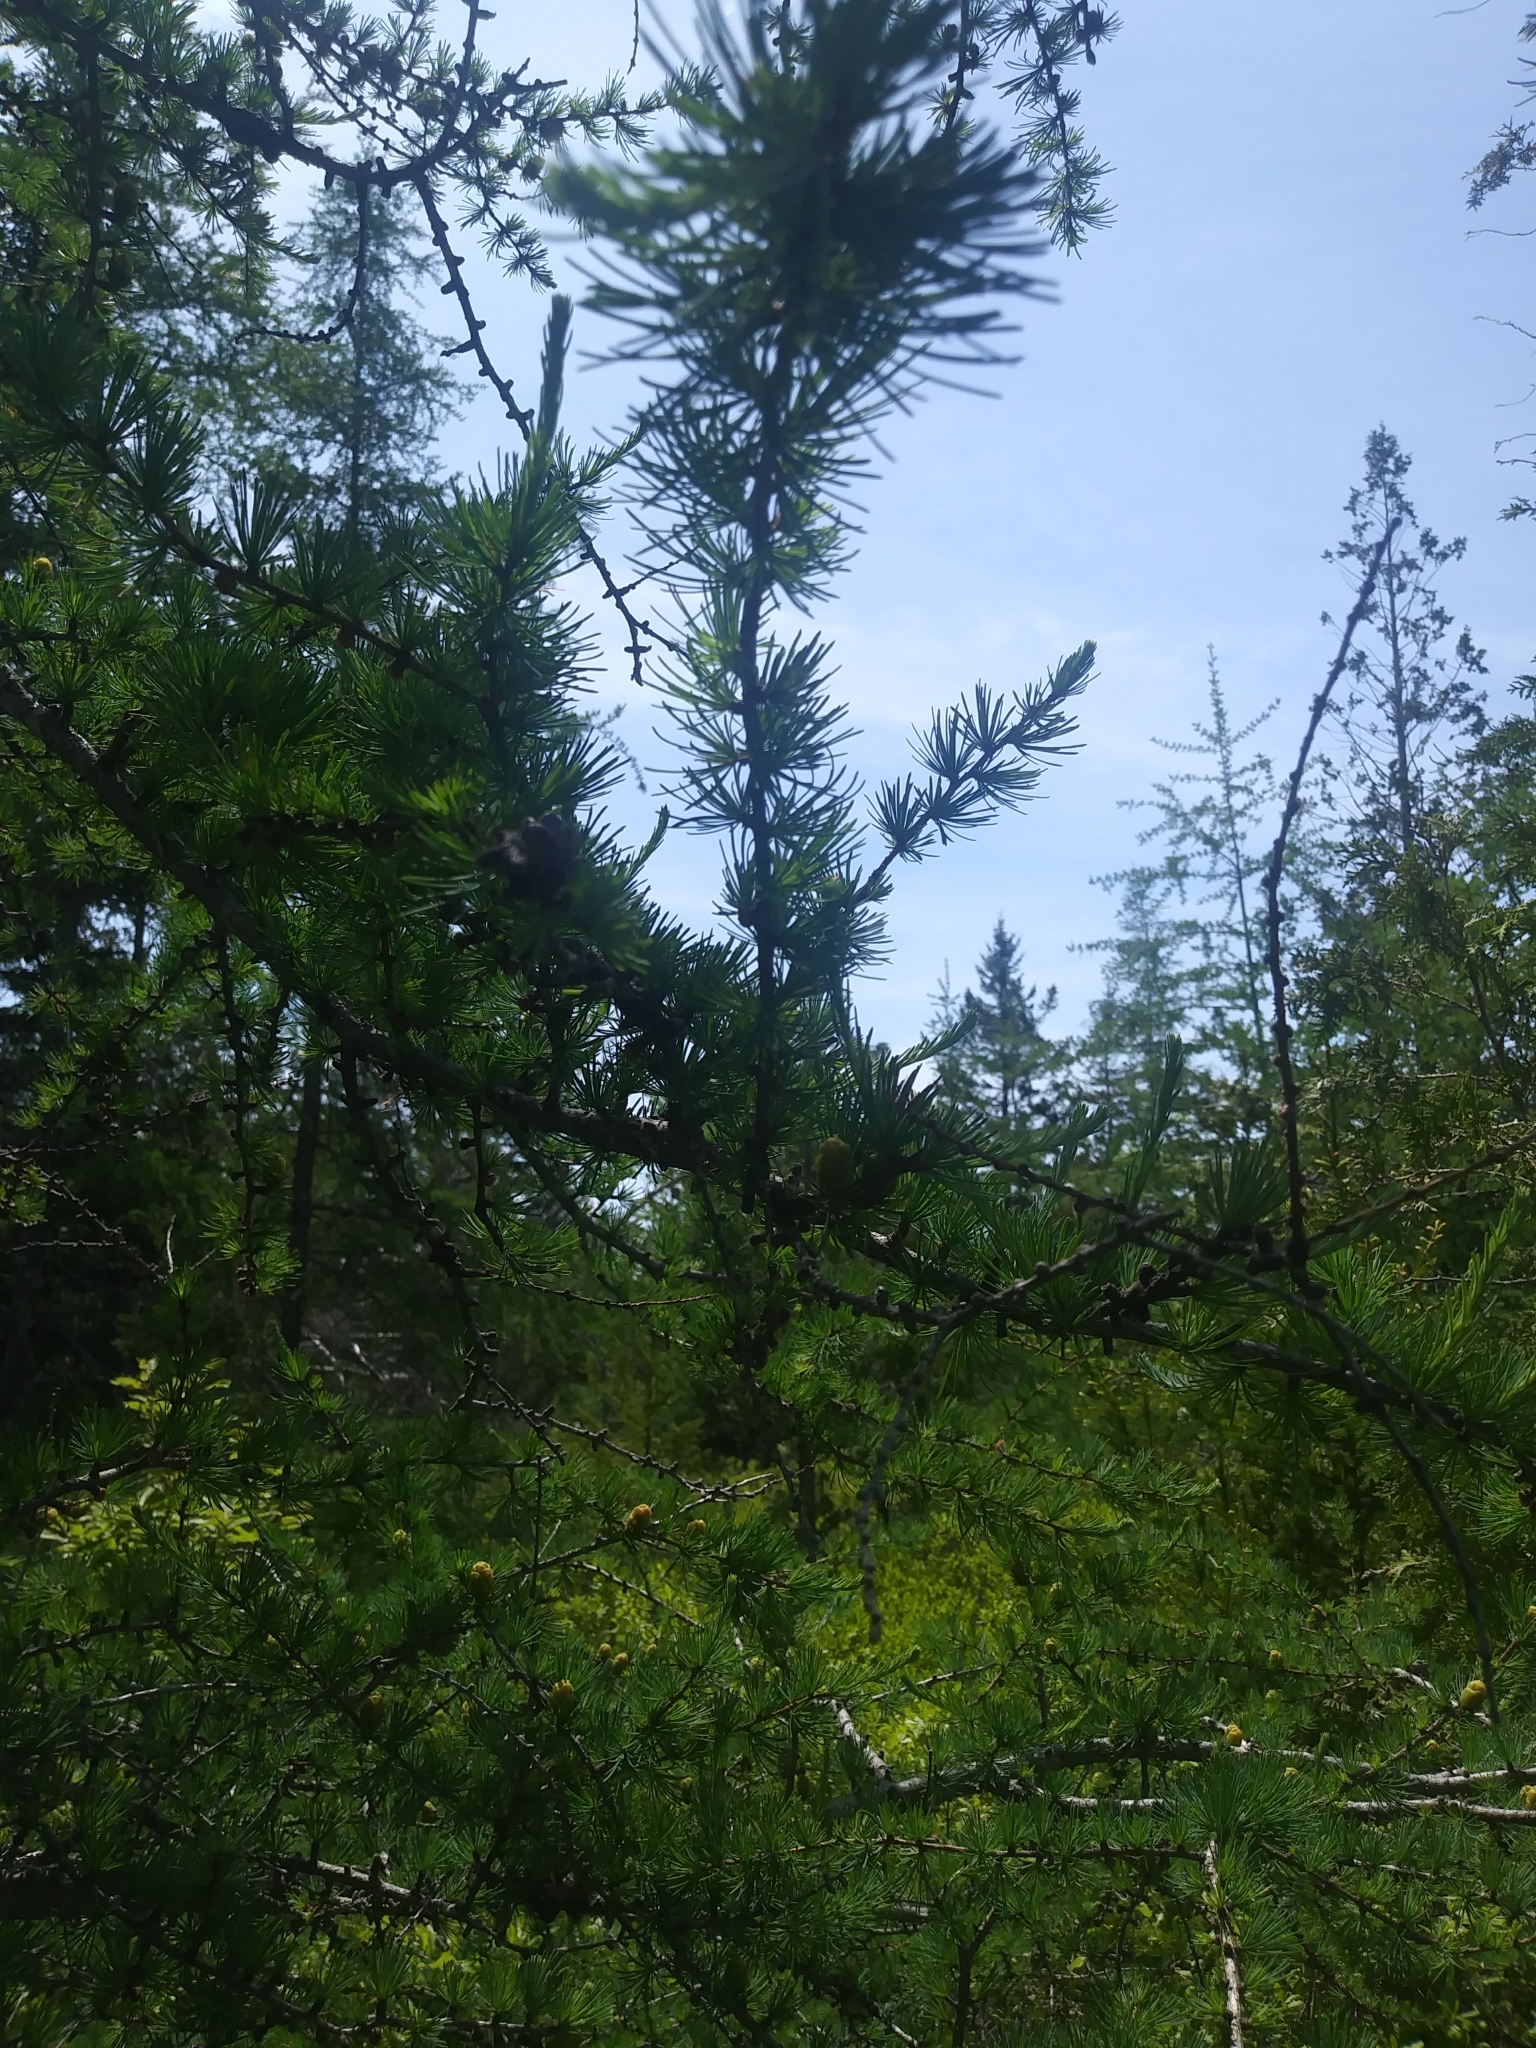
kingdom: Plantae
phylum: Tracheophyta
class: Pinopsida
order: Pinales
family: Pinaceae
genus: Larix
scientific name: Larix laricina
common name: American larch
